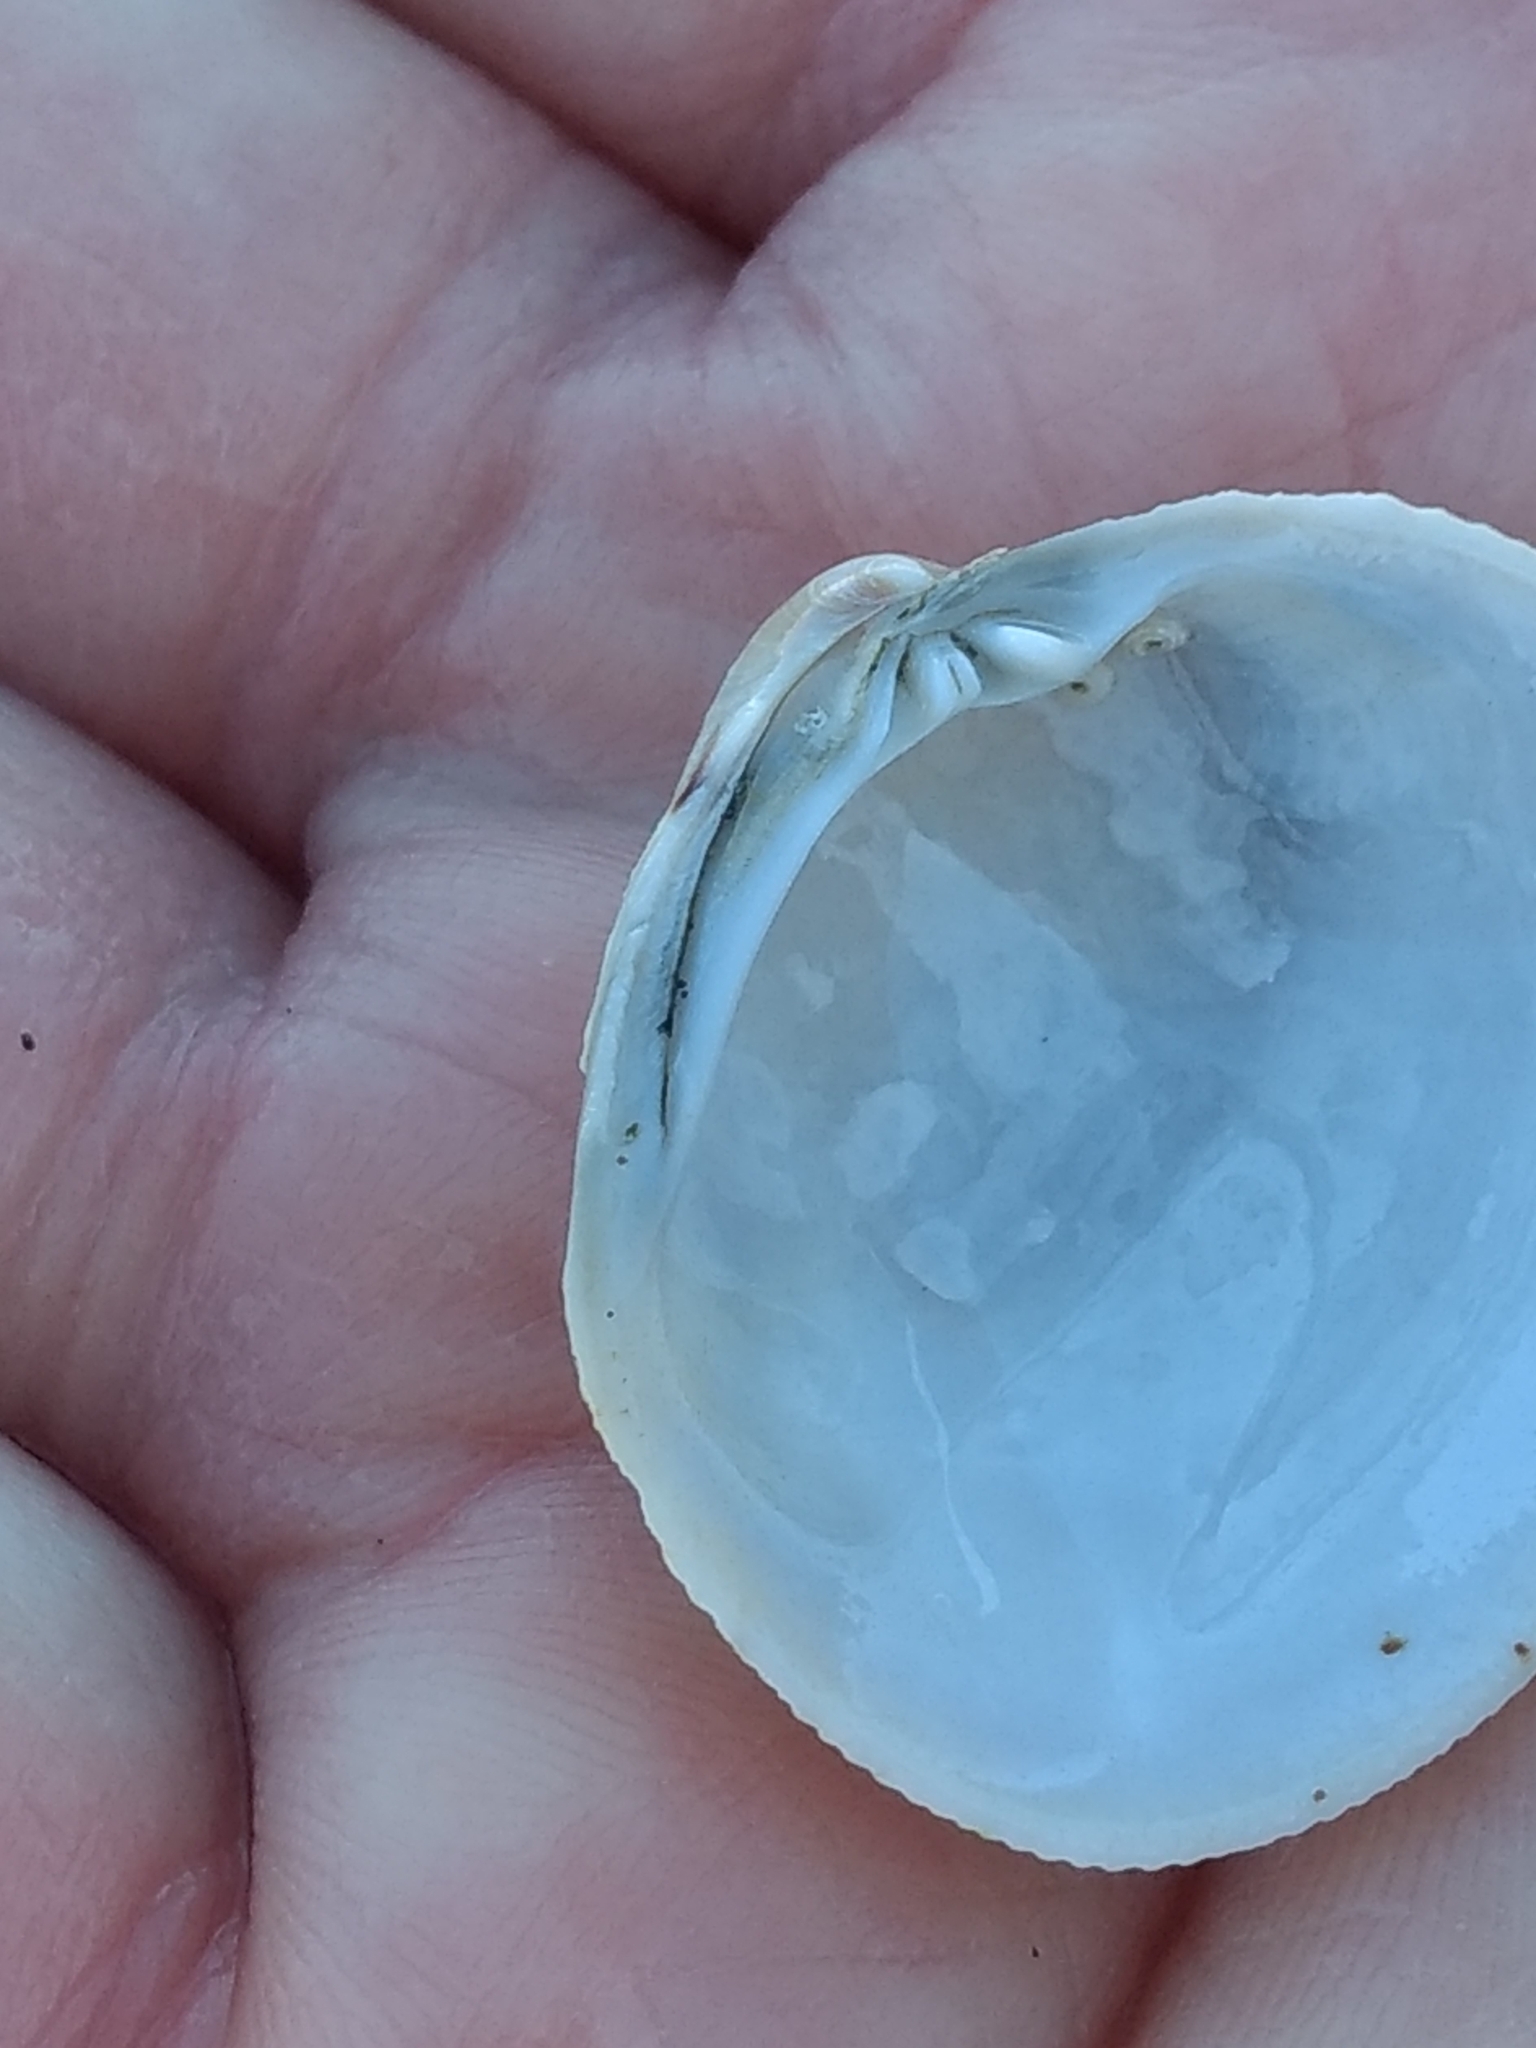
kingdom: Animalia
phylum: Mollusca
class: Bivalvia
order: Venerida
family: Veneridae
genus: Leukoma
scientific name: Leukoma staminea
